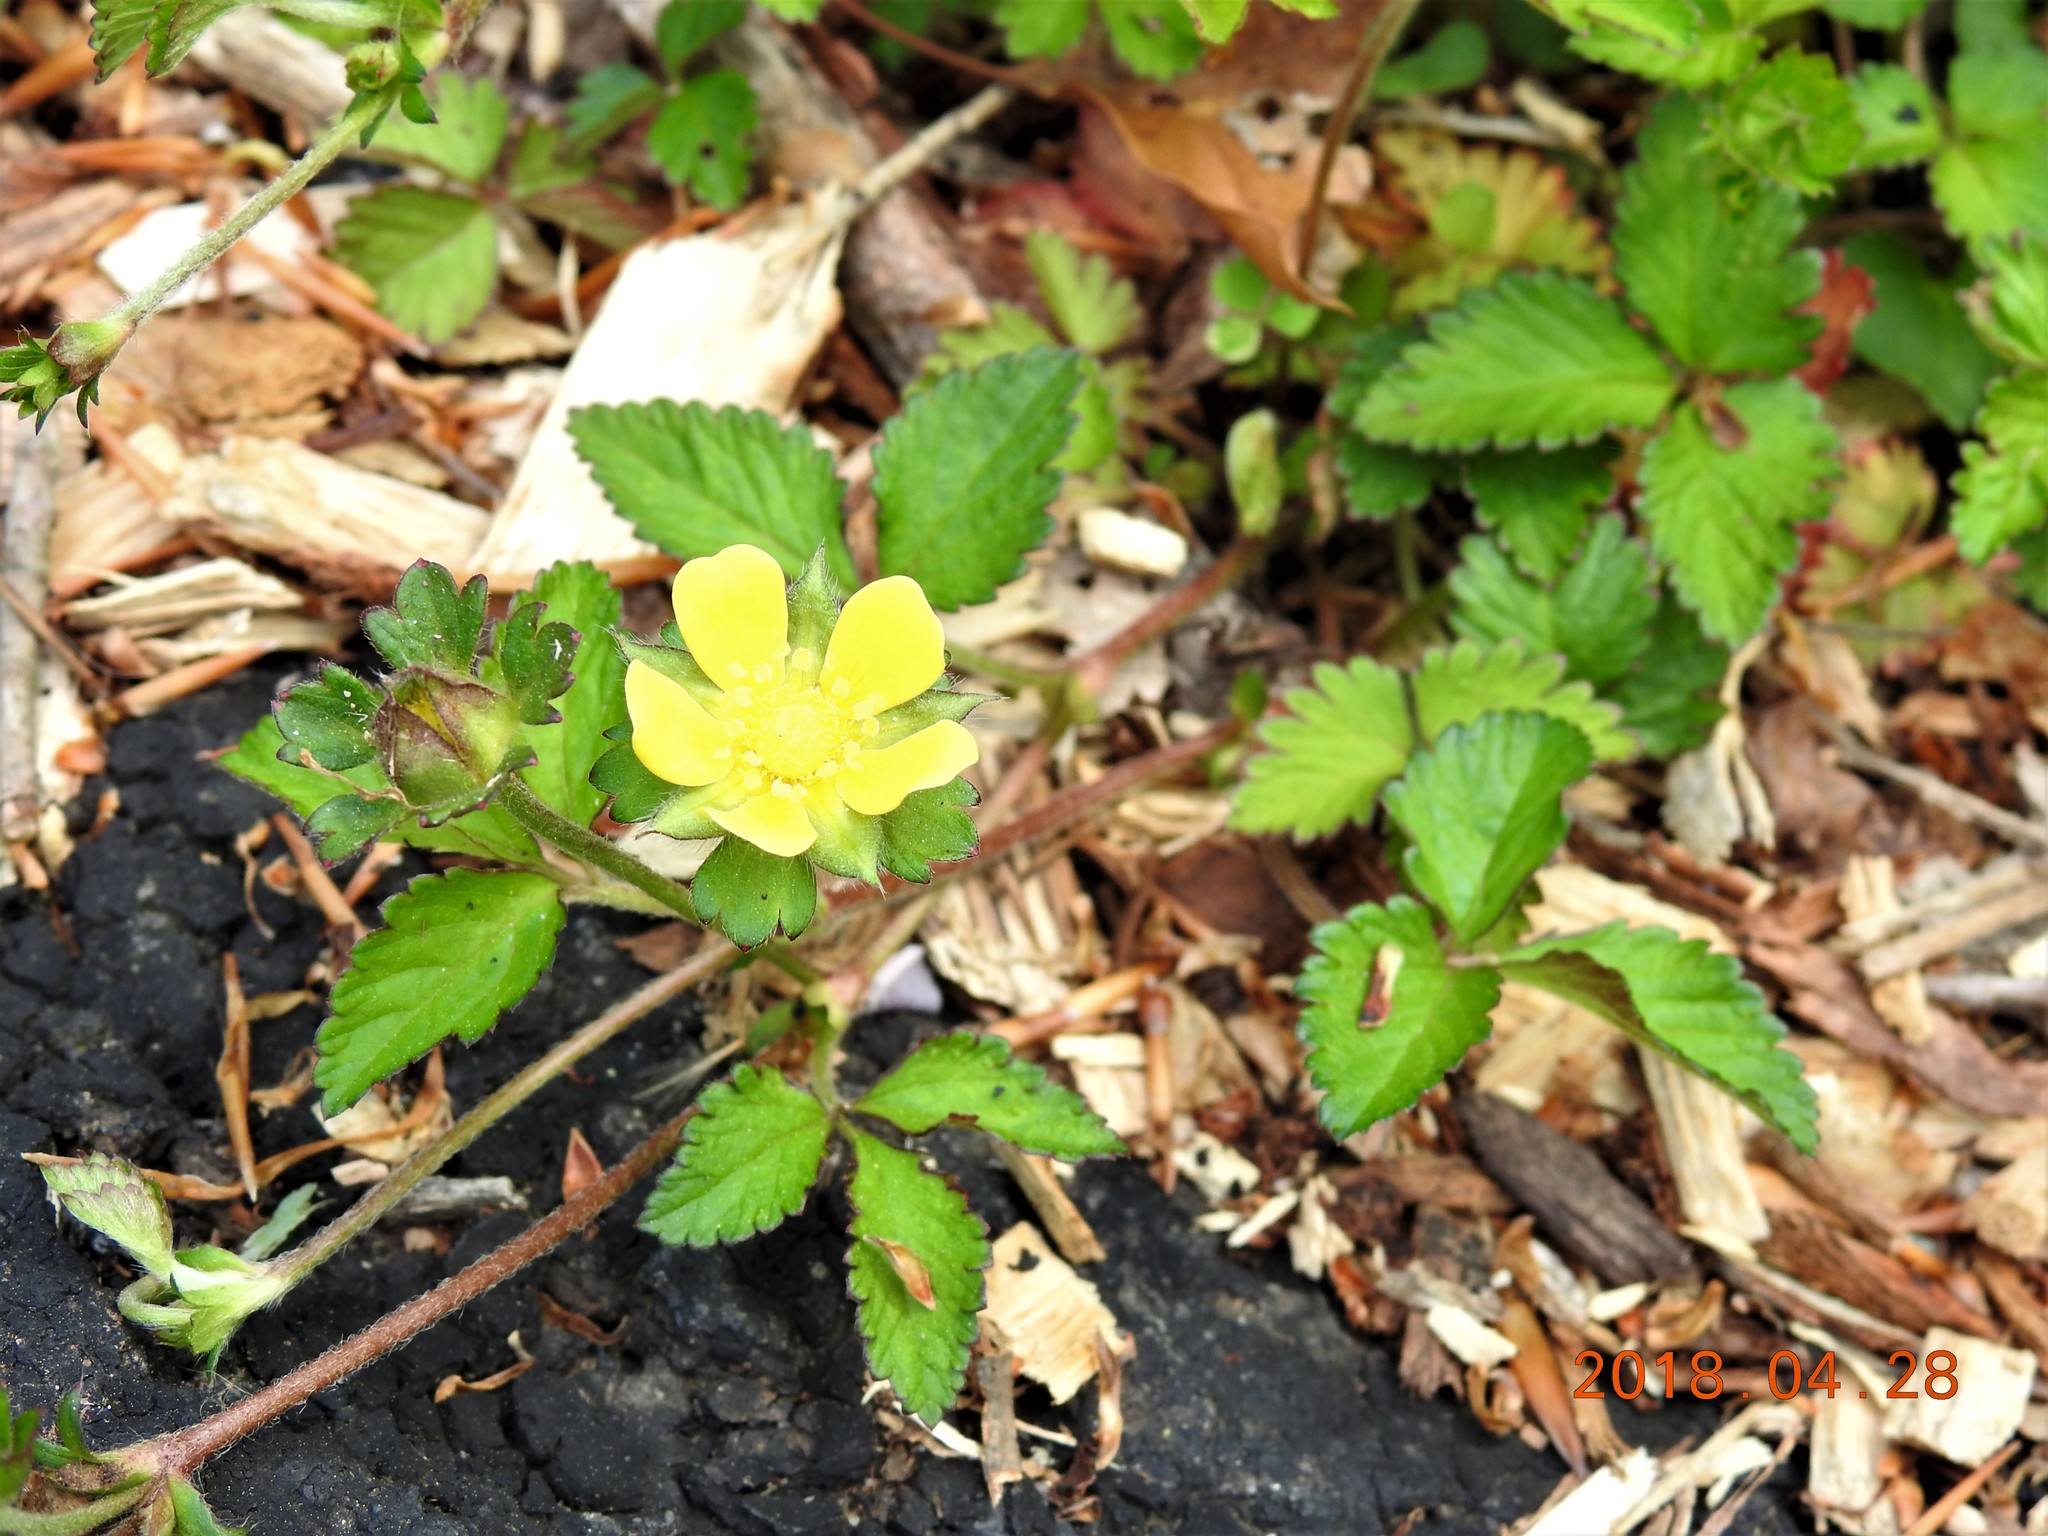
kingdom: Plantae
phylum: Tracheophyta
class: Magnoliopsida
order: Rosales
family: Rosaceae
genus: Potentilla
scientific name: Potentilla indica
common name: Yellow-flowered strawberry
